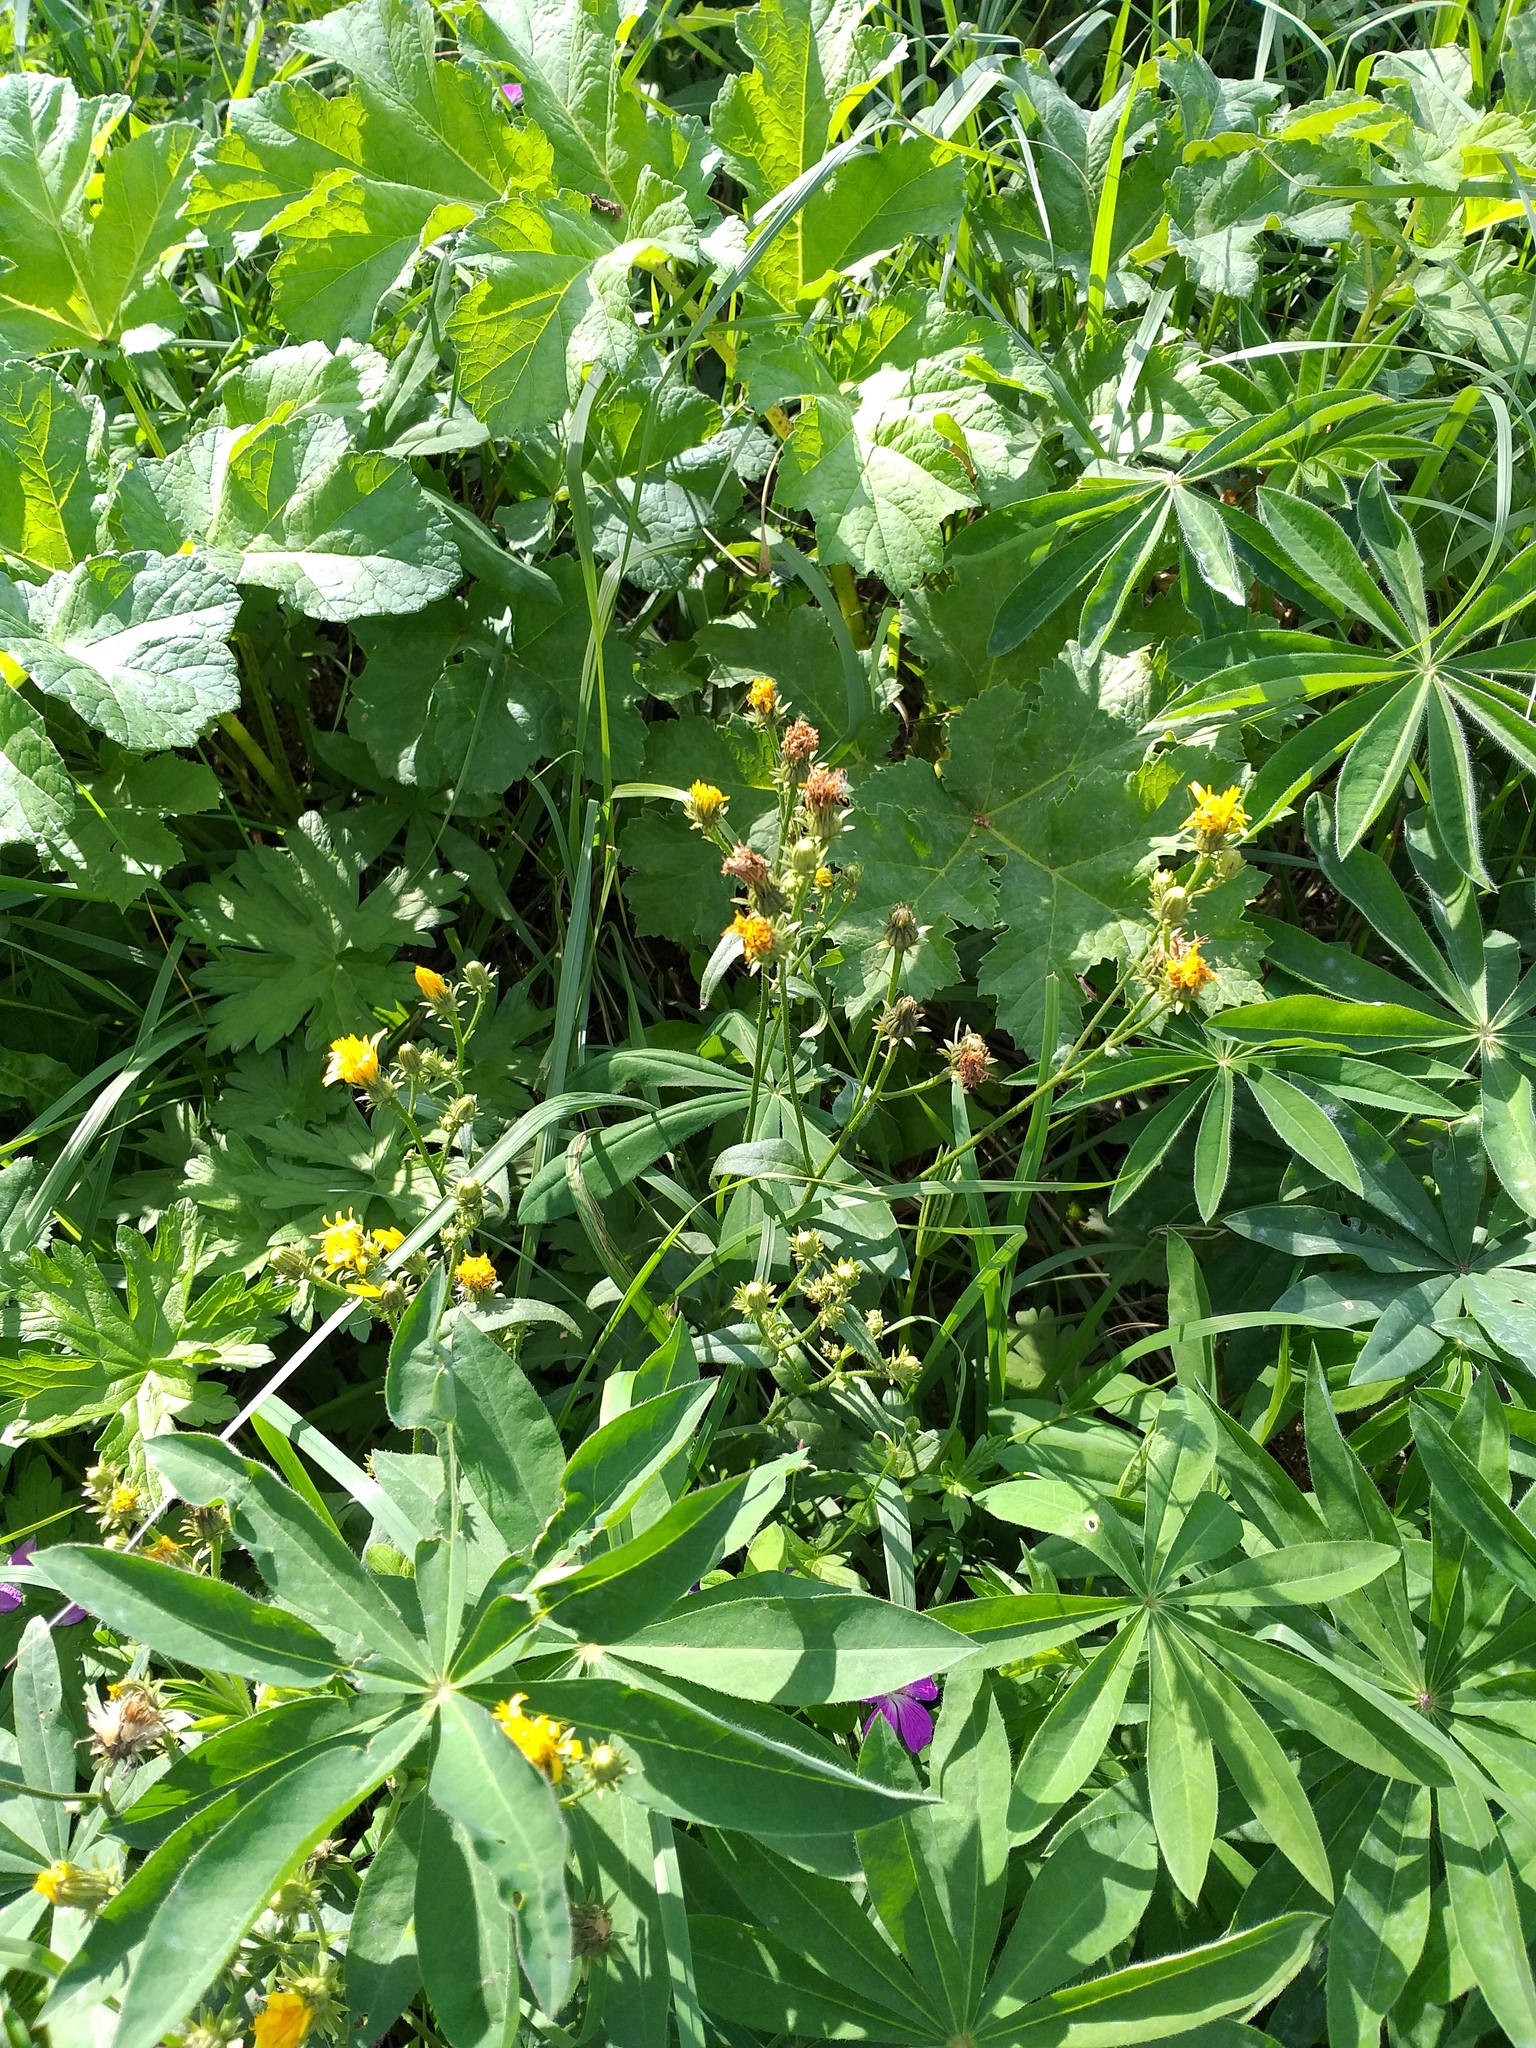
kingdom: Plantae
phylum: Tracheophyta
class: Magnoliopsida
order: Asterales
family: Asteraceae
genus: Picris
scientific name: Picris hieracioides
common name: Hawkweed oxtongue
